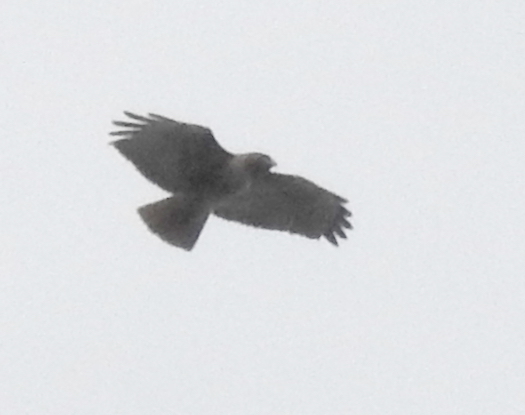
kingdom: Animalia
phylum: Chordata
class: Aves
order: Accipitriformes
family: Accipitridae
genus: Buteo
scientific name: Buteo jamaicensis
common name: Red-tailed hawk
